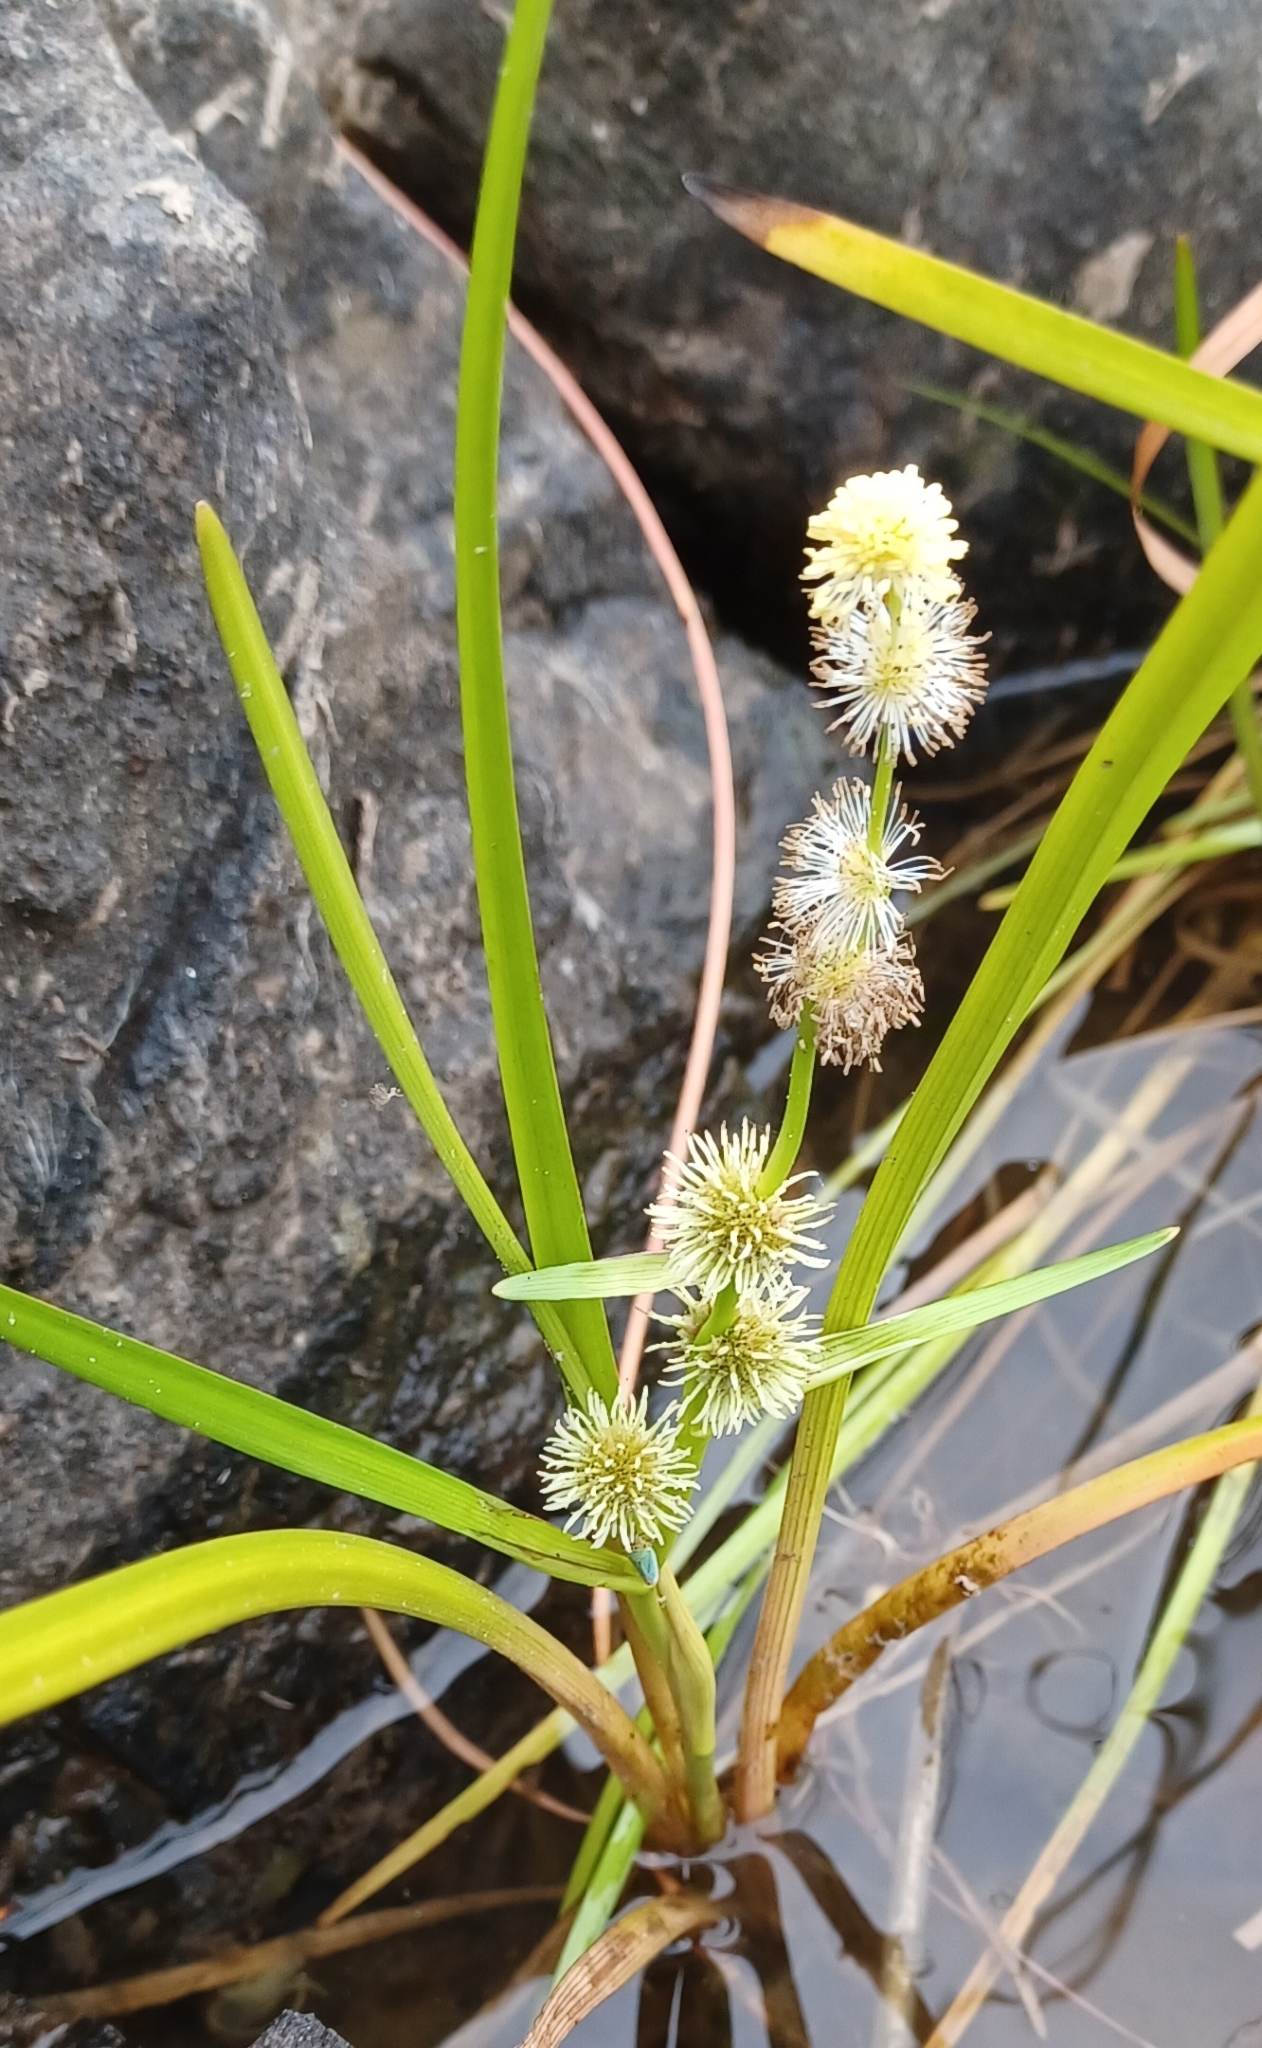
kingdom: Plantae
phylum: Tracheophyta
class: Liliopsida
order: Poales
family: Typhaceae
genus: Sparganium
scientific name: Sparganium emersum
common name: Unbranched bur-reed
